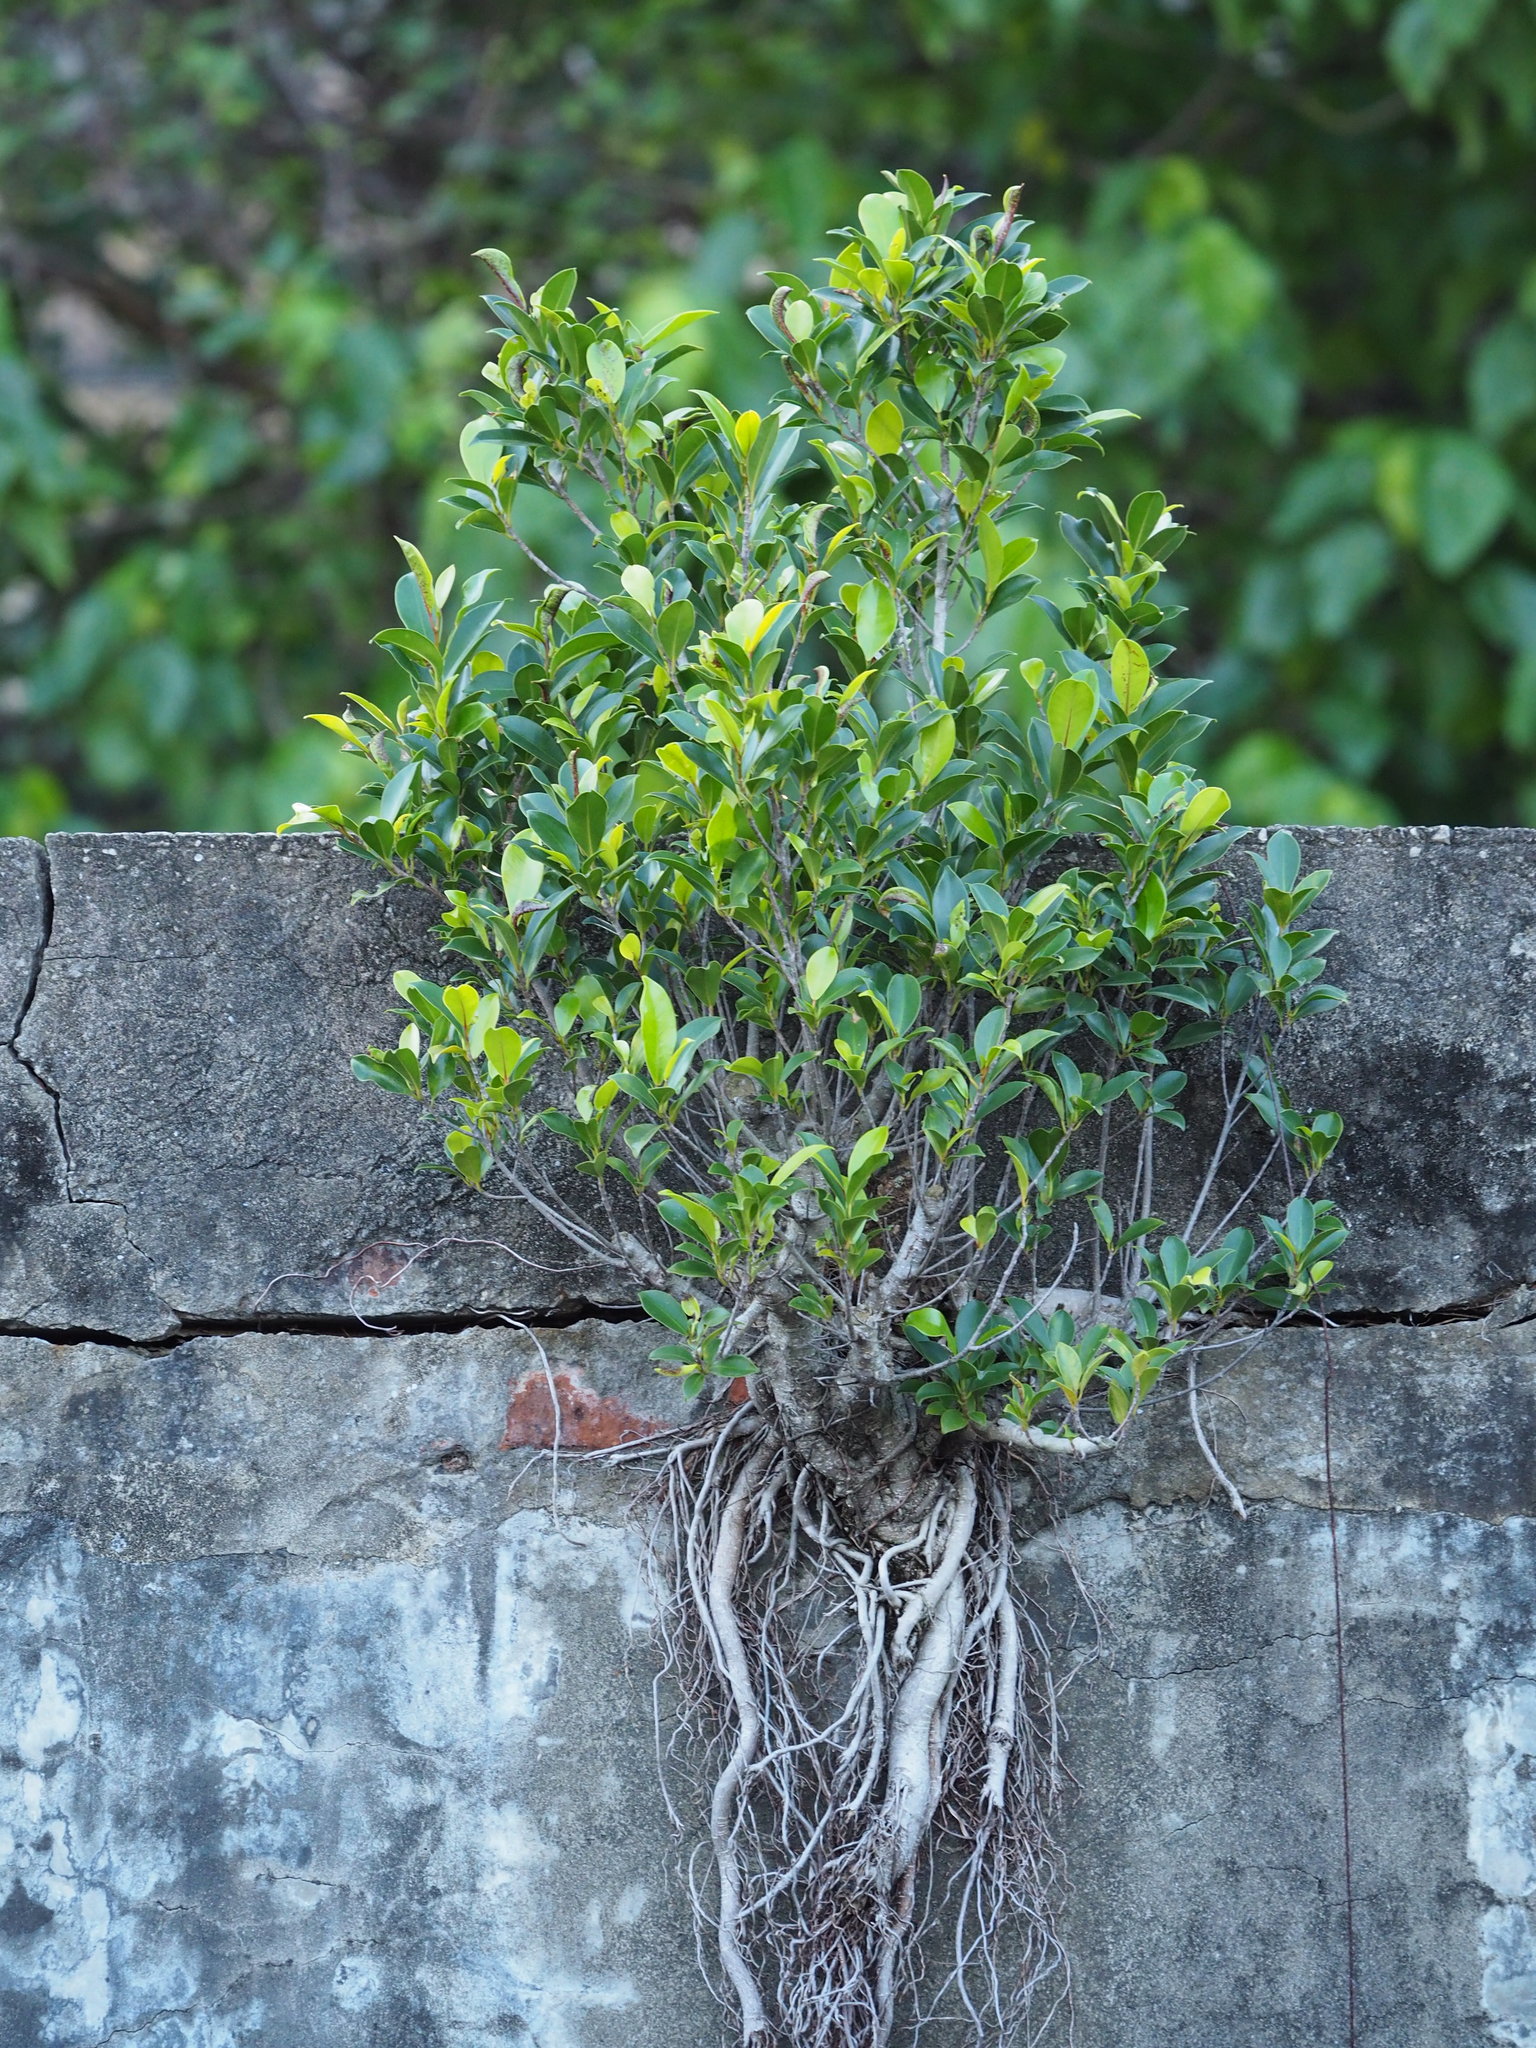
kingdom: Plantae
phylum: Tracheophyta
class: Magnoliopsida
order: Rosales
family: Moraceae
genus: Ficus
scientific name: Ficus microcarpa
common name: Chinese banyan
